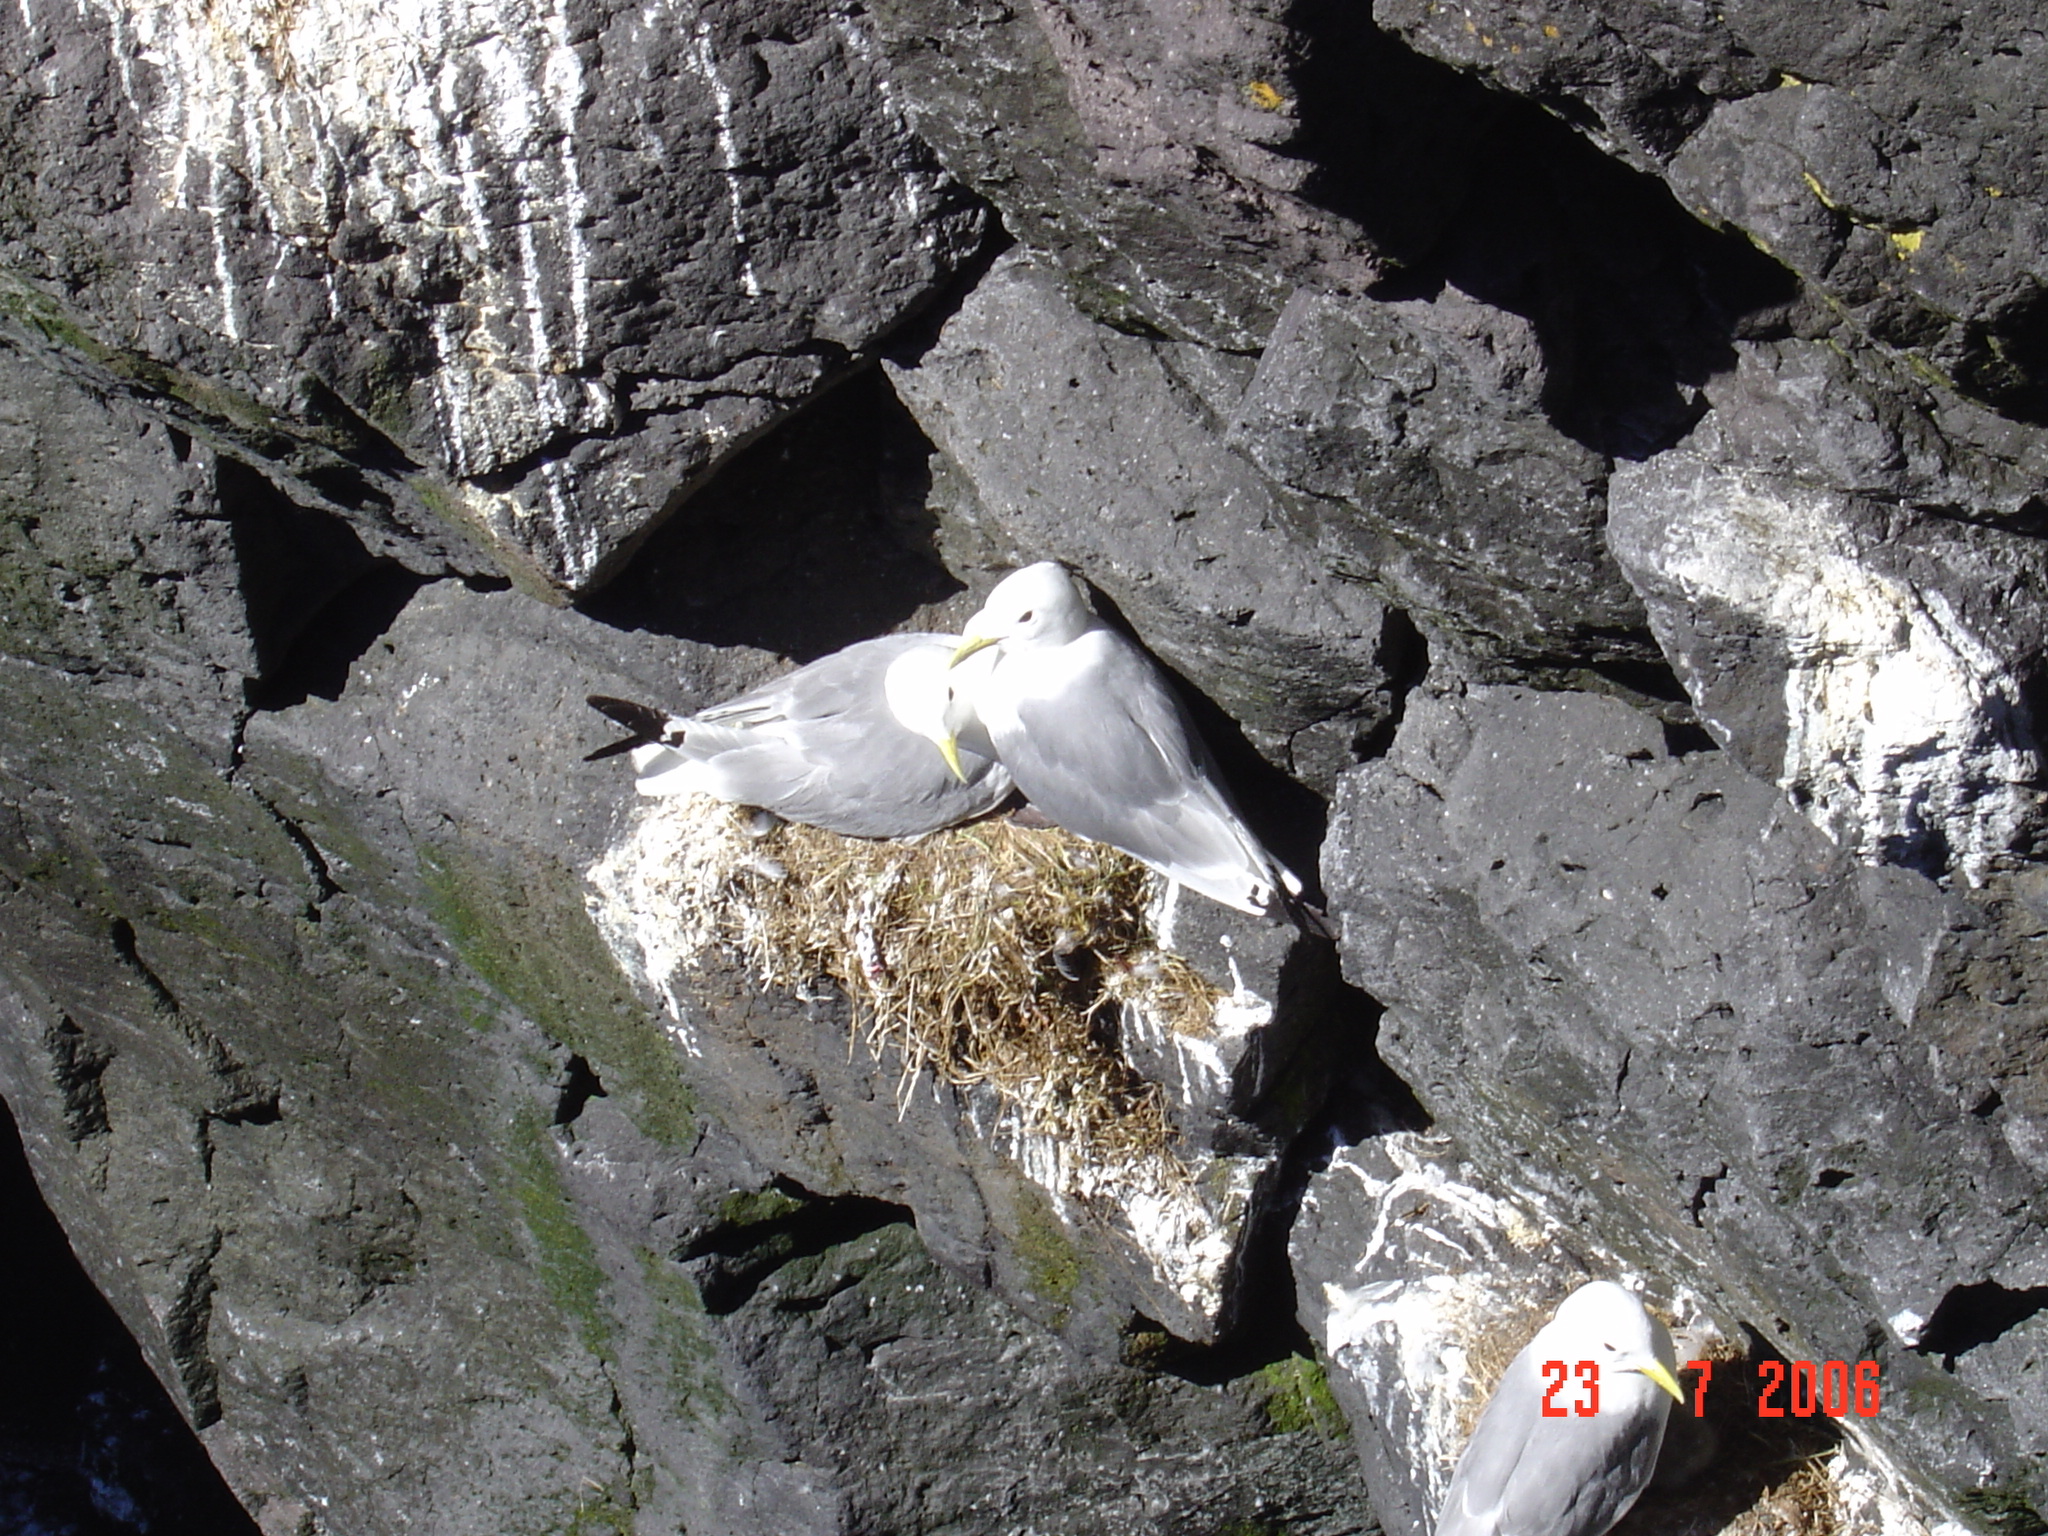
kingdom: Animalia
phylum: Chordata
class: Aves
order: Charadriiformes
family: Laridae
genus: Rissa
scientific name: Rissa tridactyla
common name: Black-legged kittiwake
